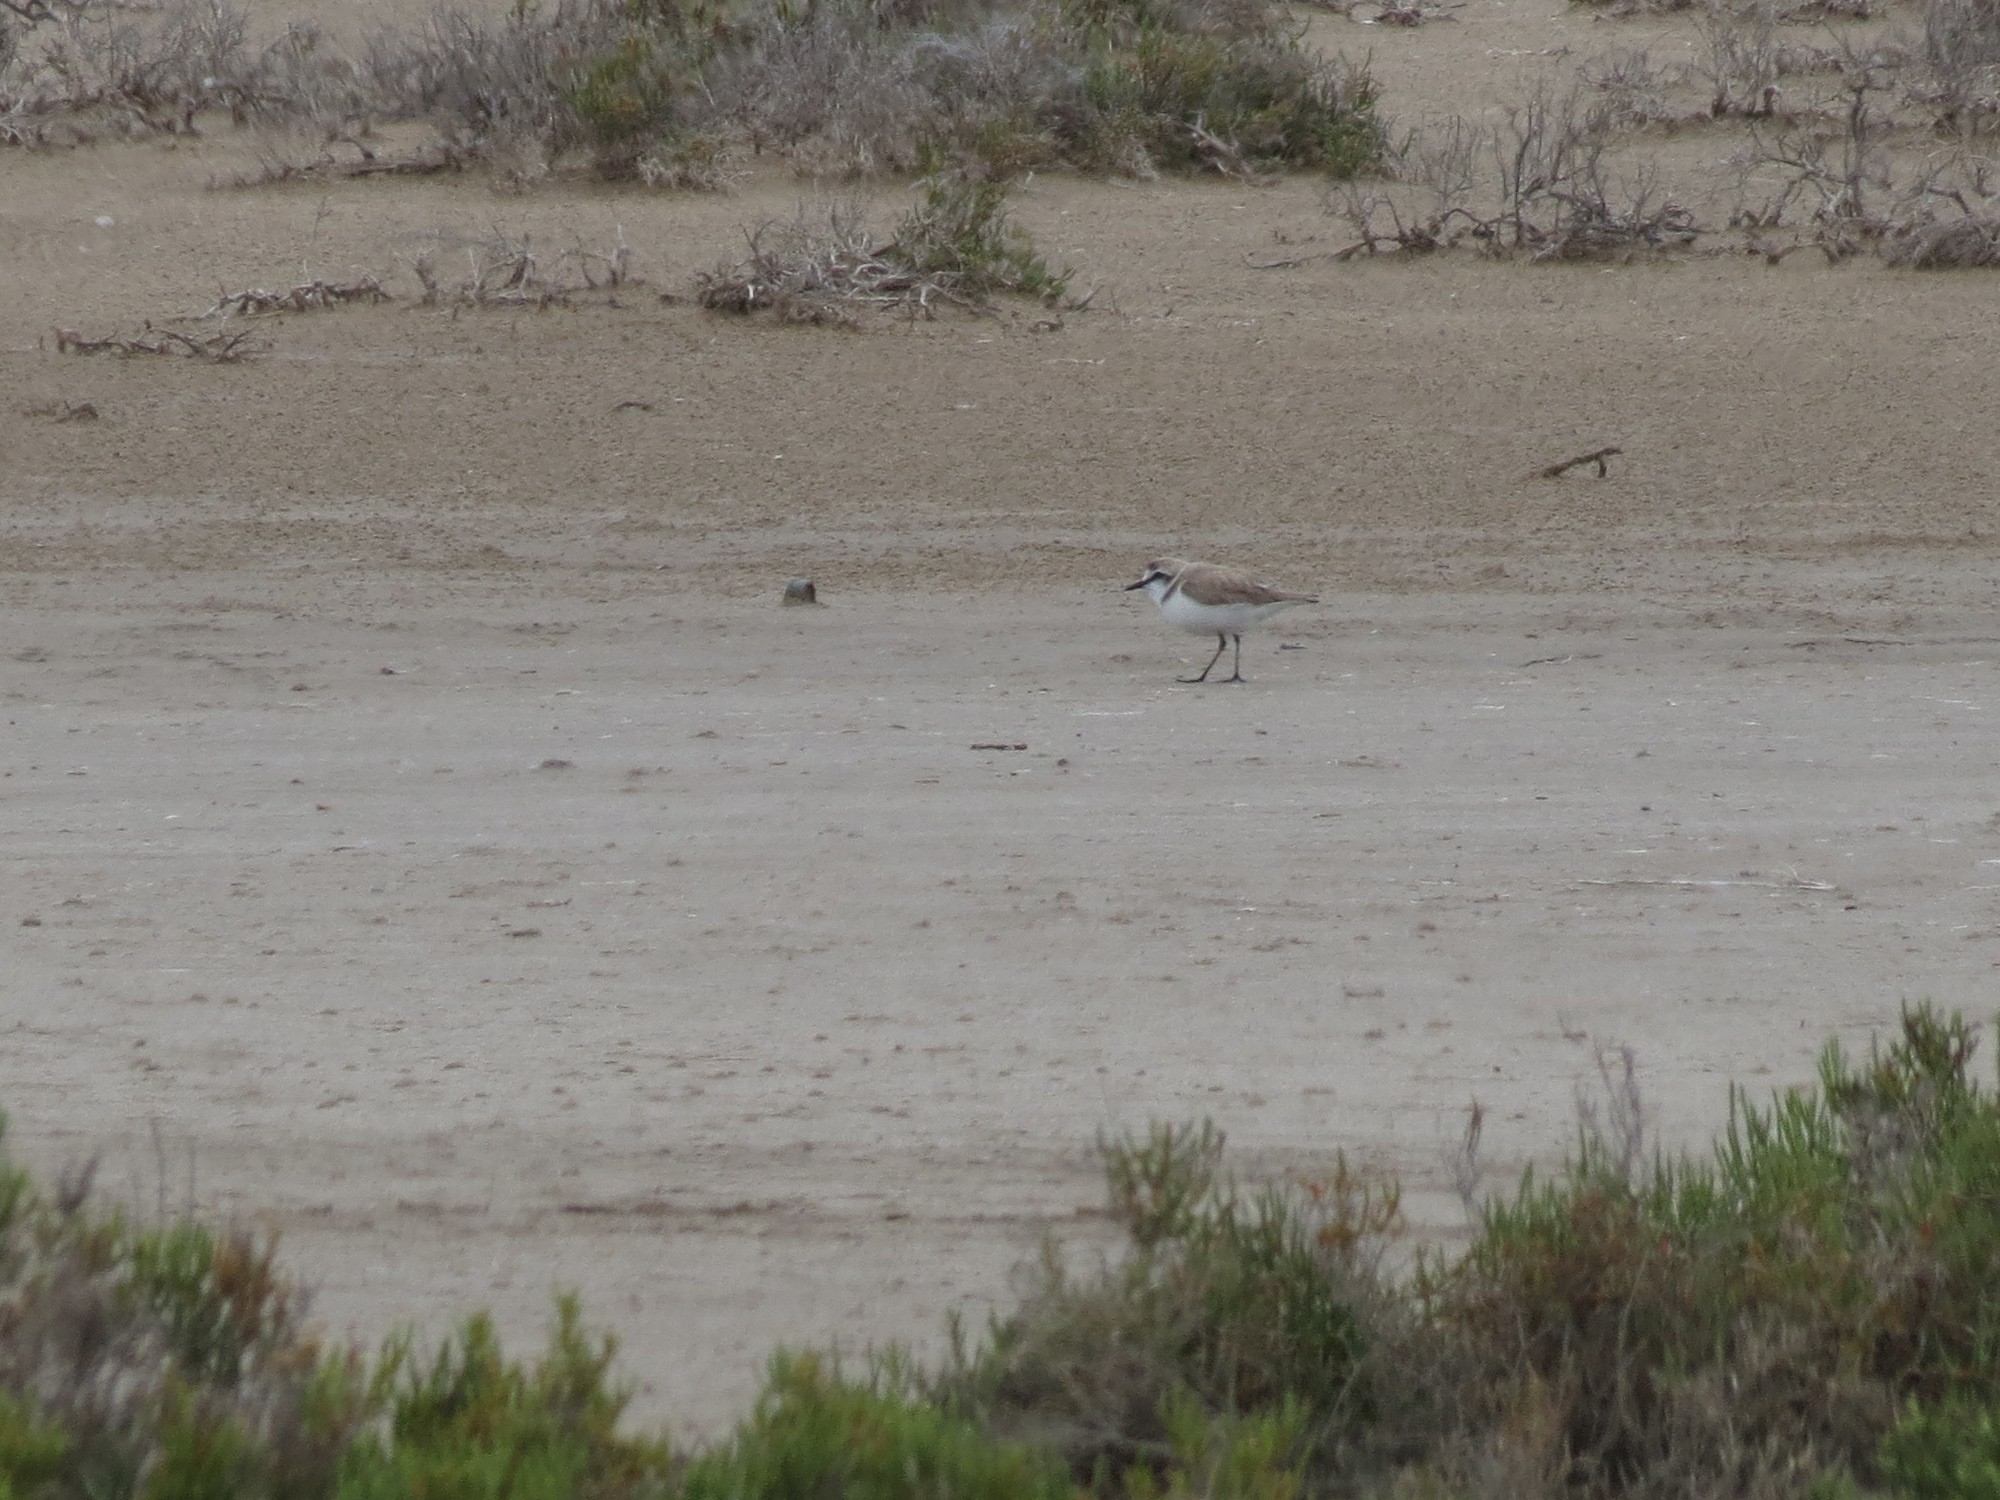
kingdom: Animalia
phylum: Chordata
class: Aves
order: Charadriiformes
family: Charadriidae
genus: Charadrius
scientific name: Charadrius alexandrinus
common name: Kentish plover
